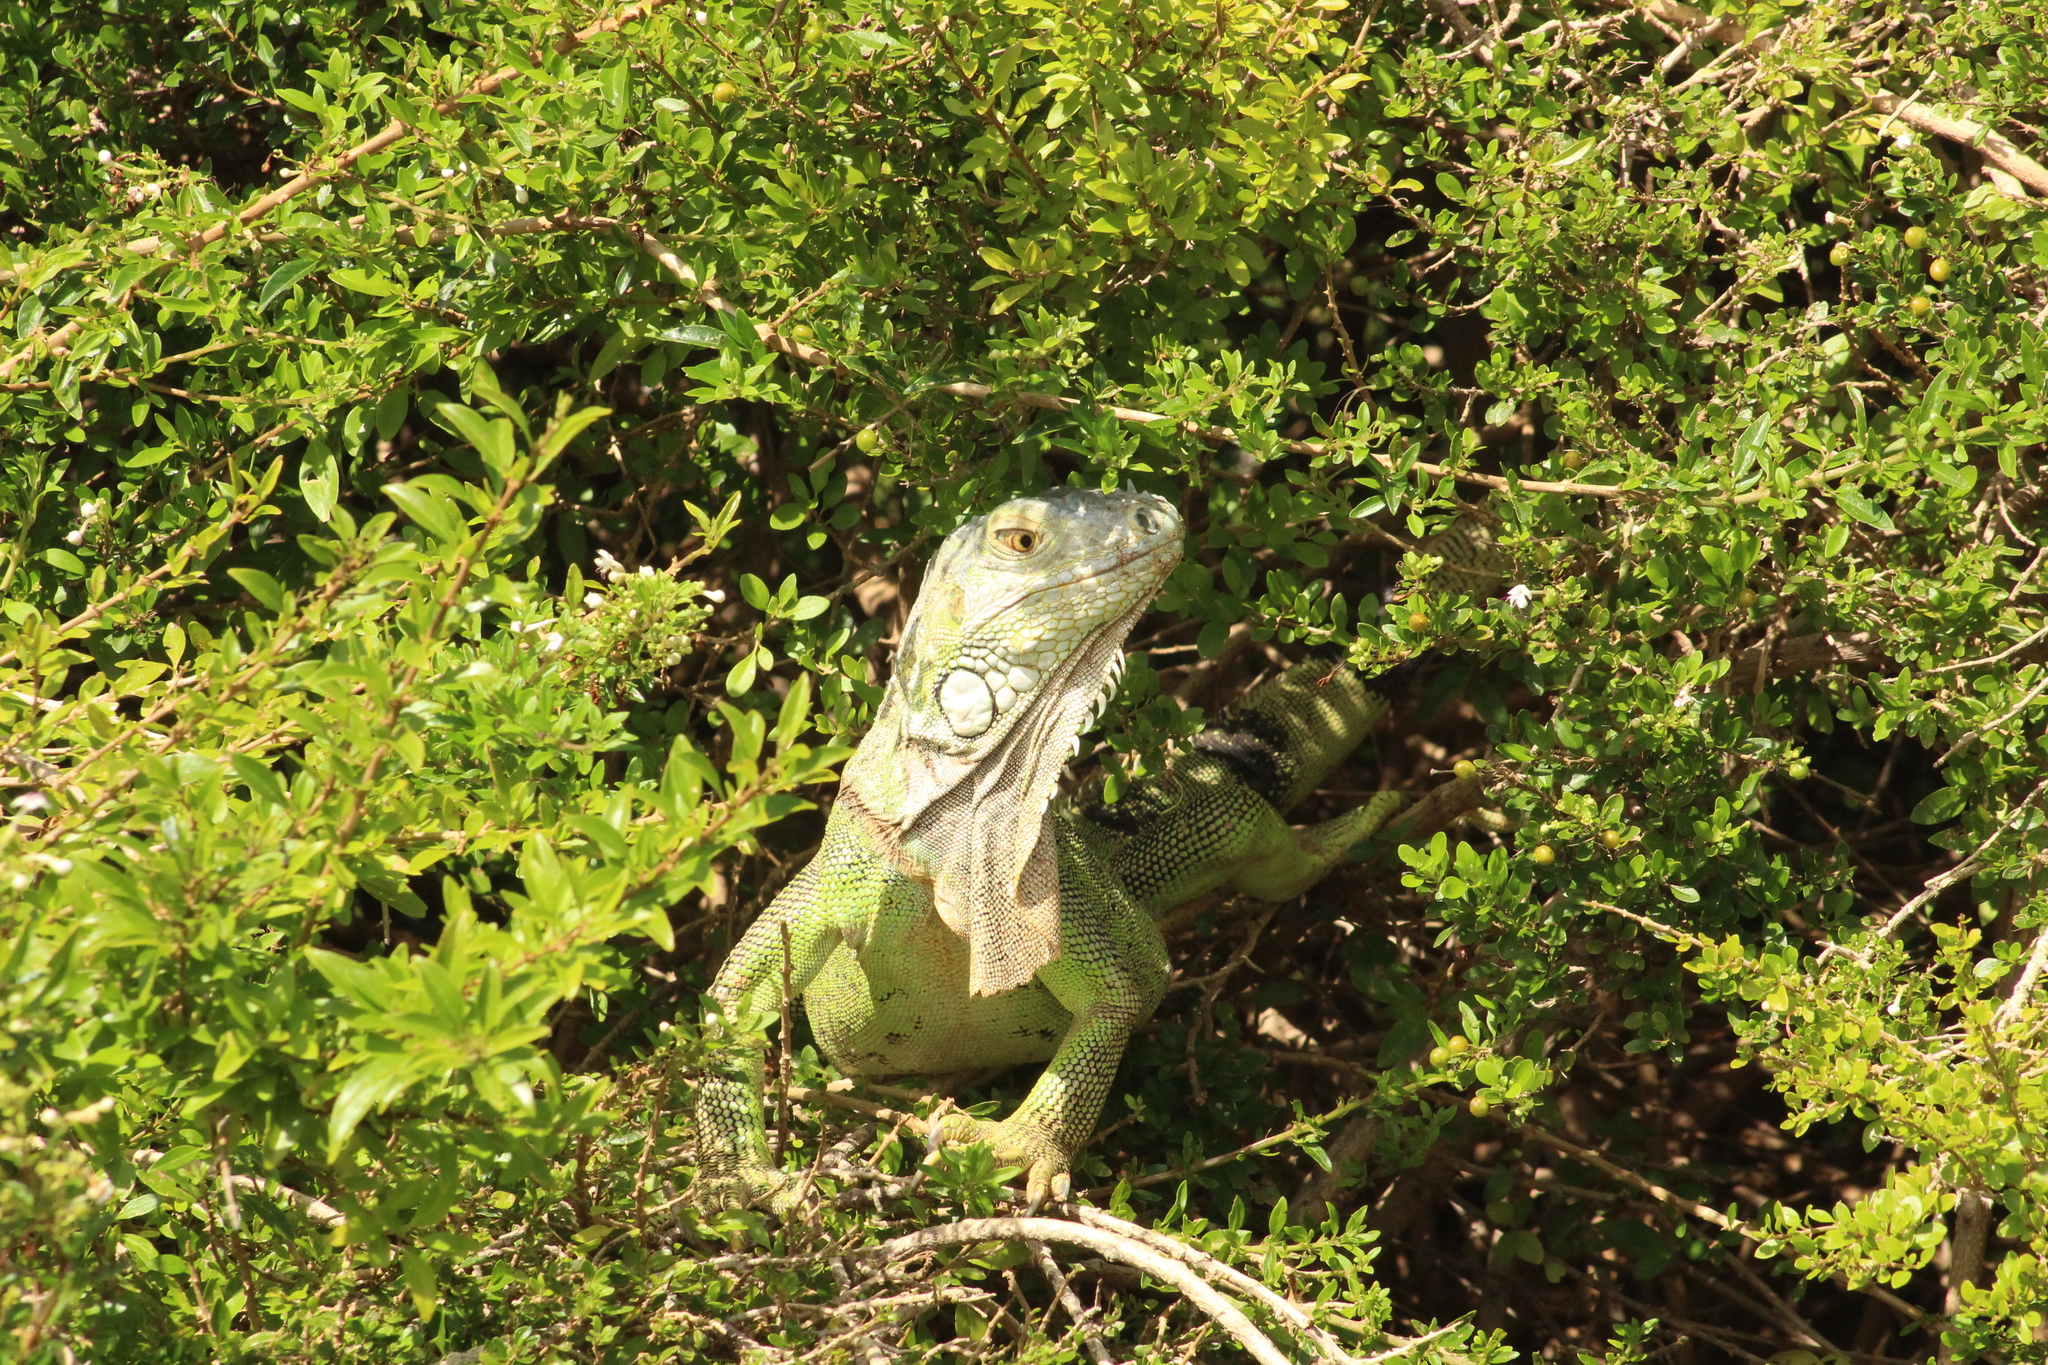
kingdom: Animalia
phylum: Chordata
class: Squamata
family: Iguanidae
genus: Iguana
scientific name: Iguana iguana
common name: Green iguana
